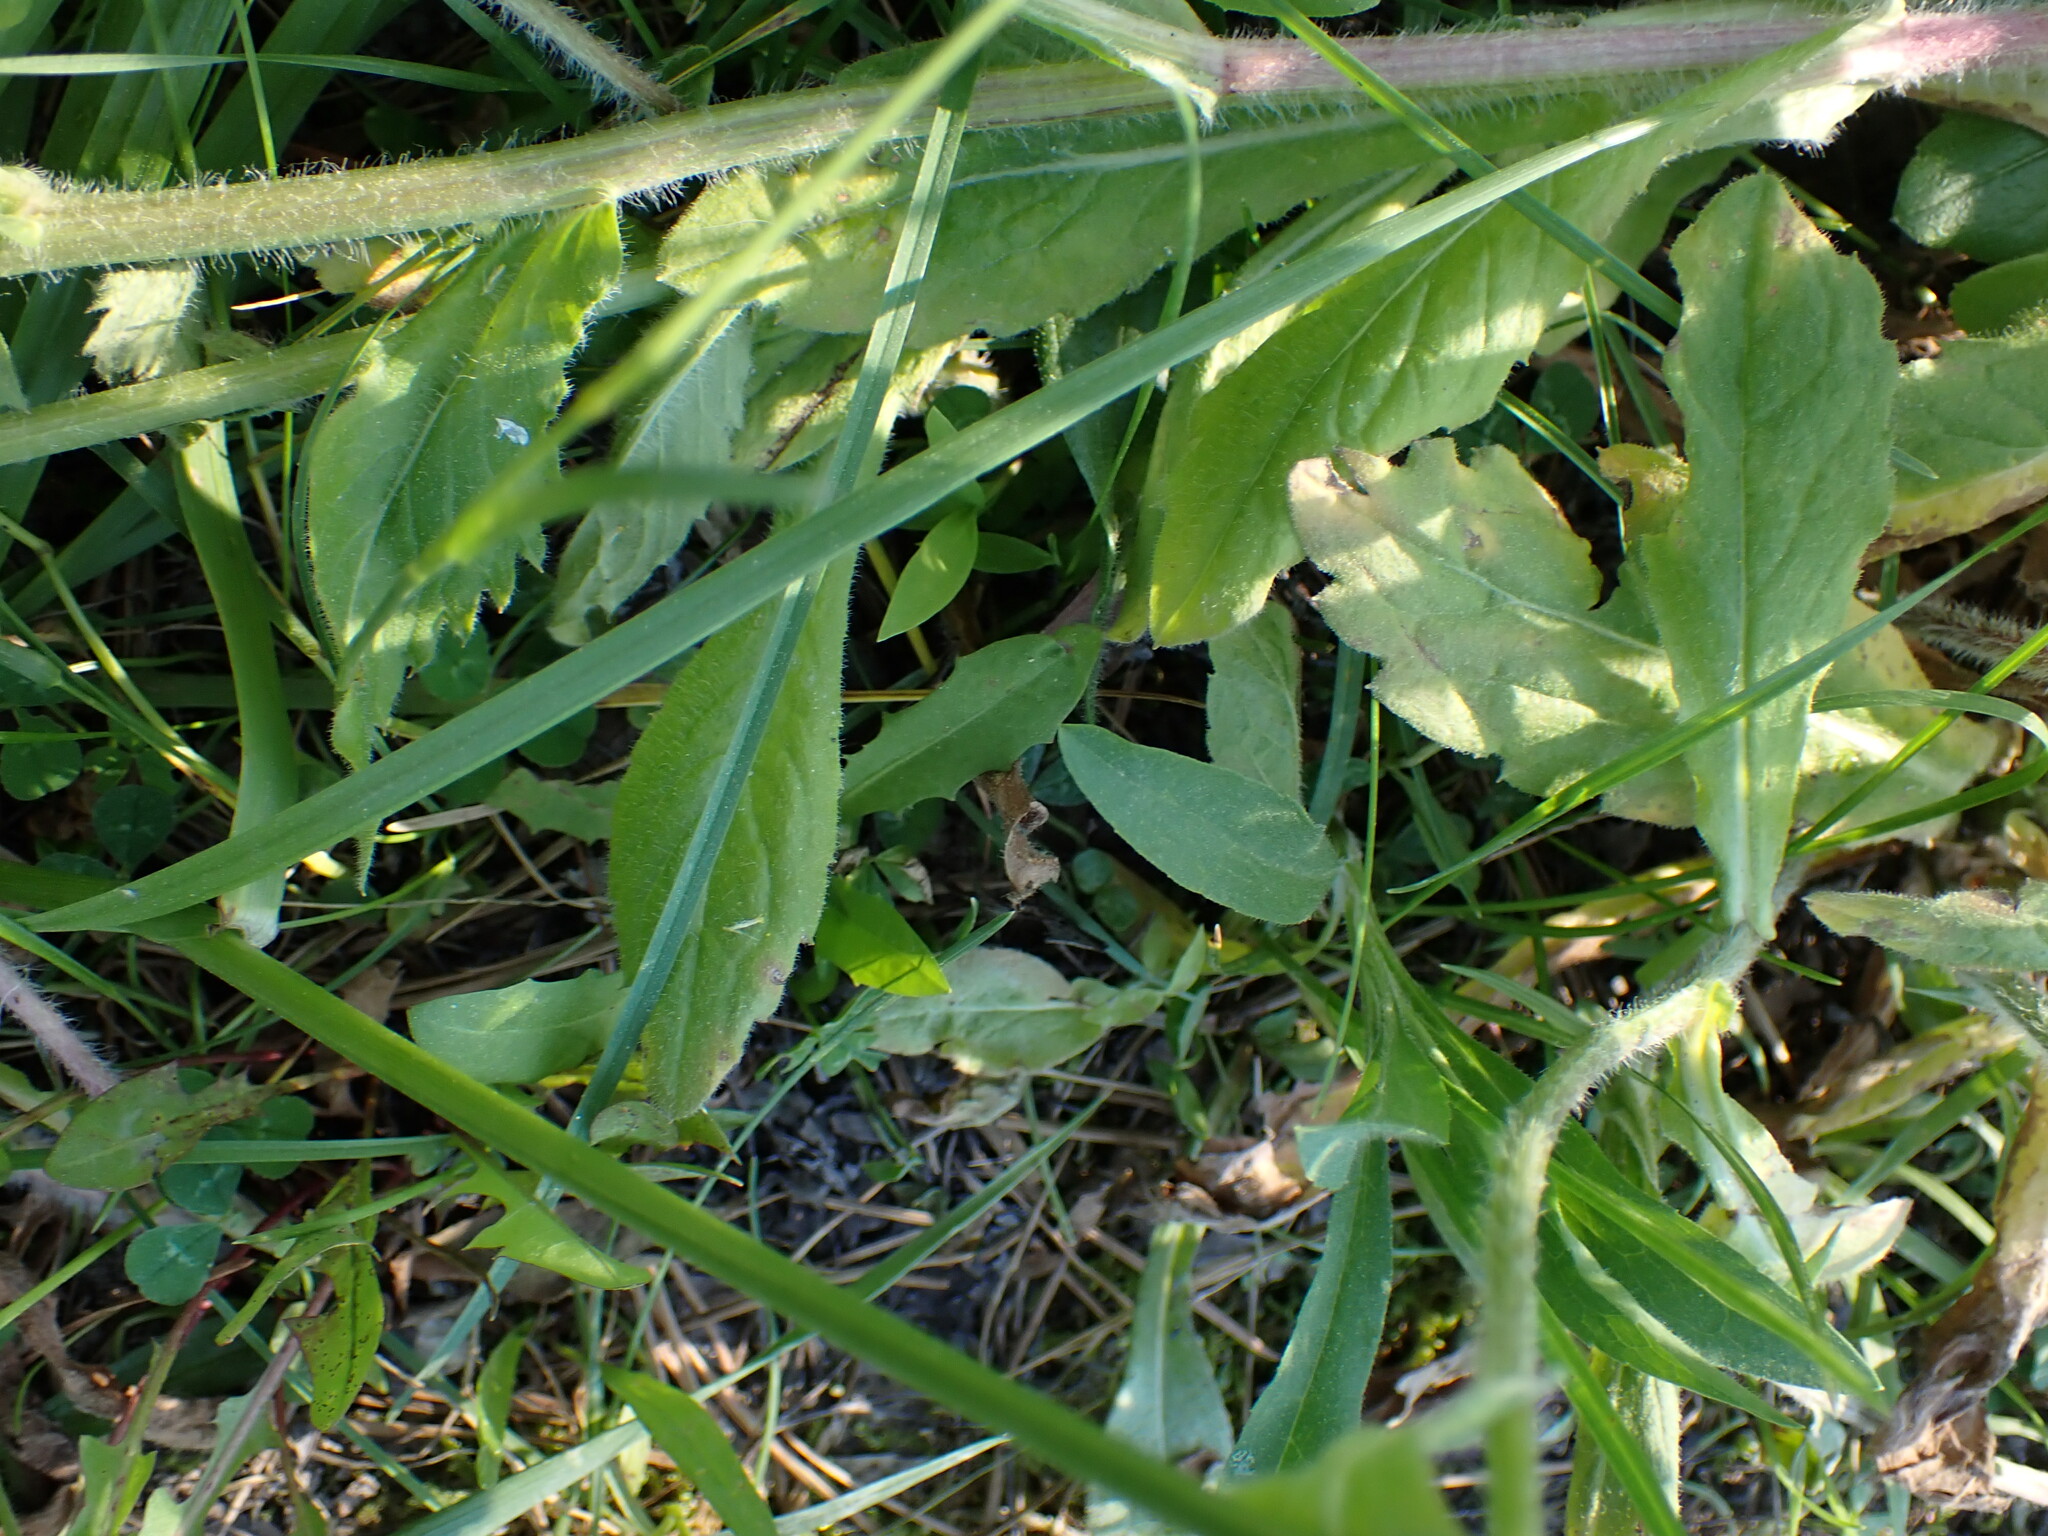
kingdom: Plantae
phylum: Tracheophyta
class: Magnoliopsida
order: Asterales
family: Asteraceae
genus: Erigeron
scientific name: Erigeron philadelphicus
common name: Robin's-plantain
